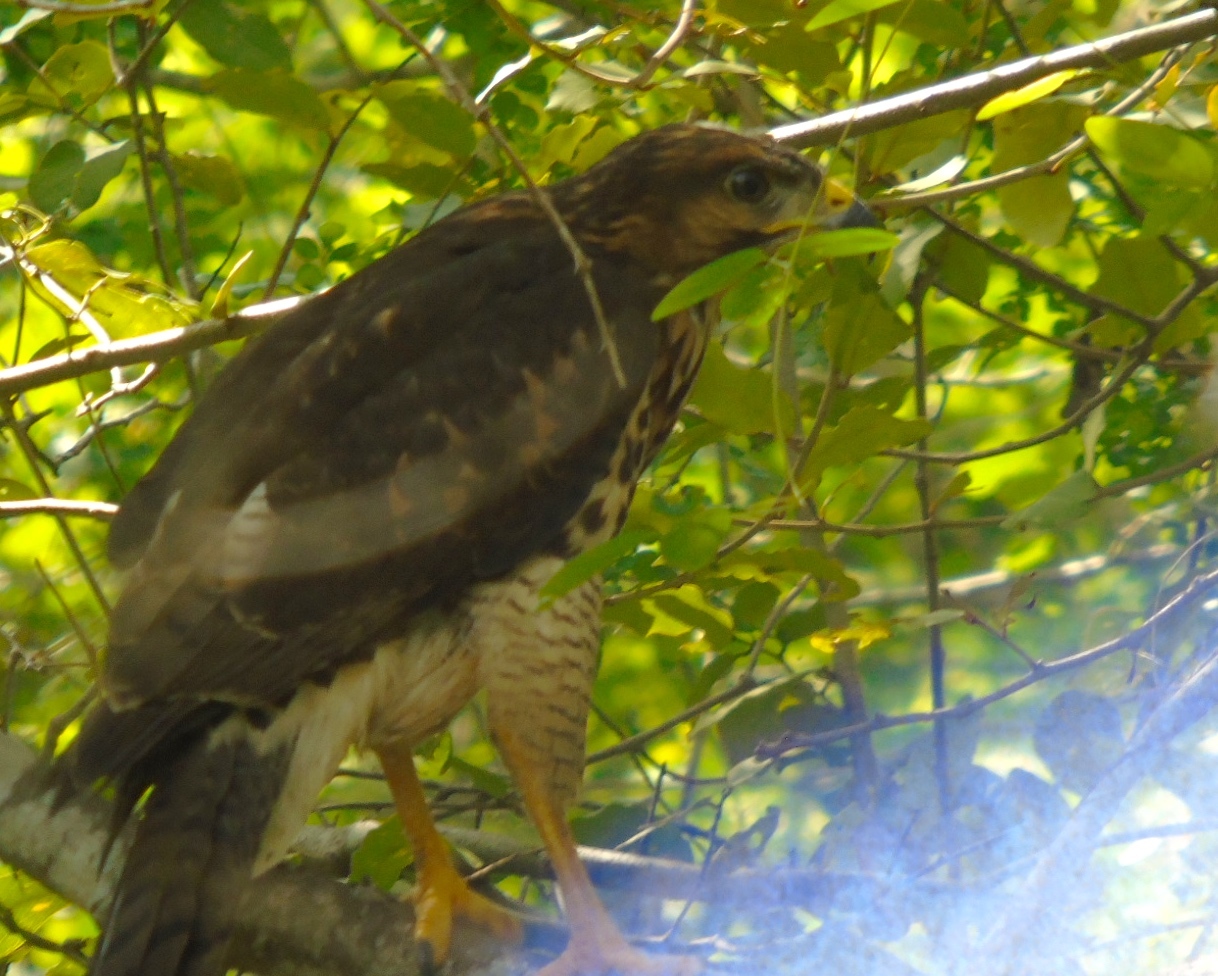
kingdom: Animalia
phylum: Chordata
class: Aves
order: Accipitriformes
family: Accipitridae
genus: Buteo
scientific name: Buteo nitidus
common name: Grey-lined hawk
